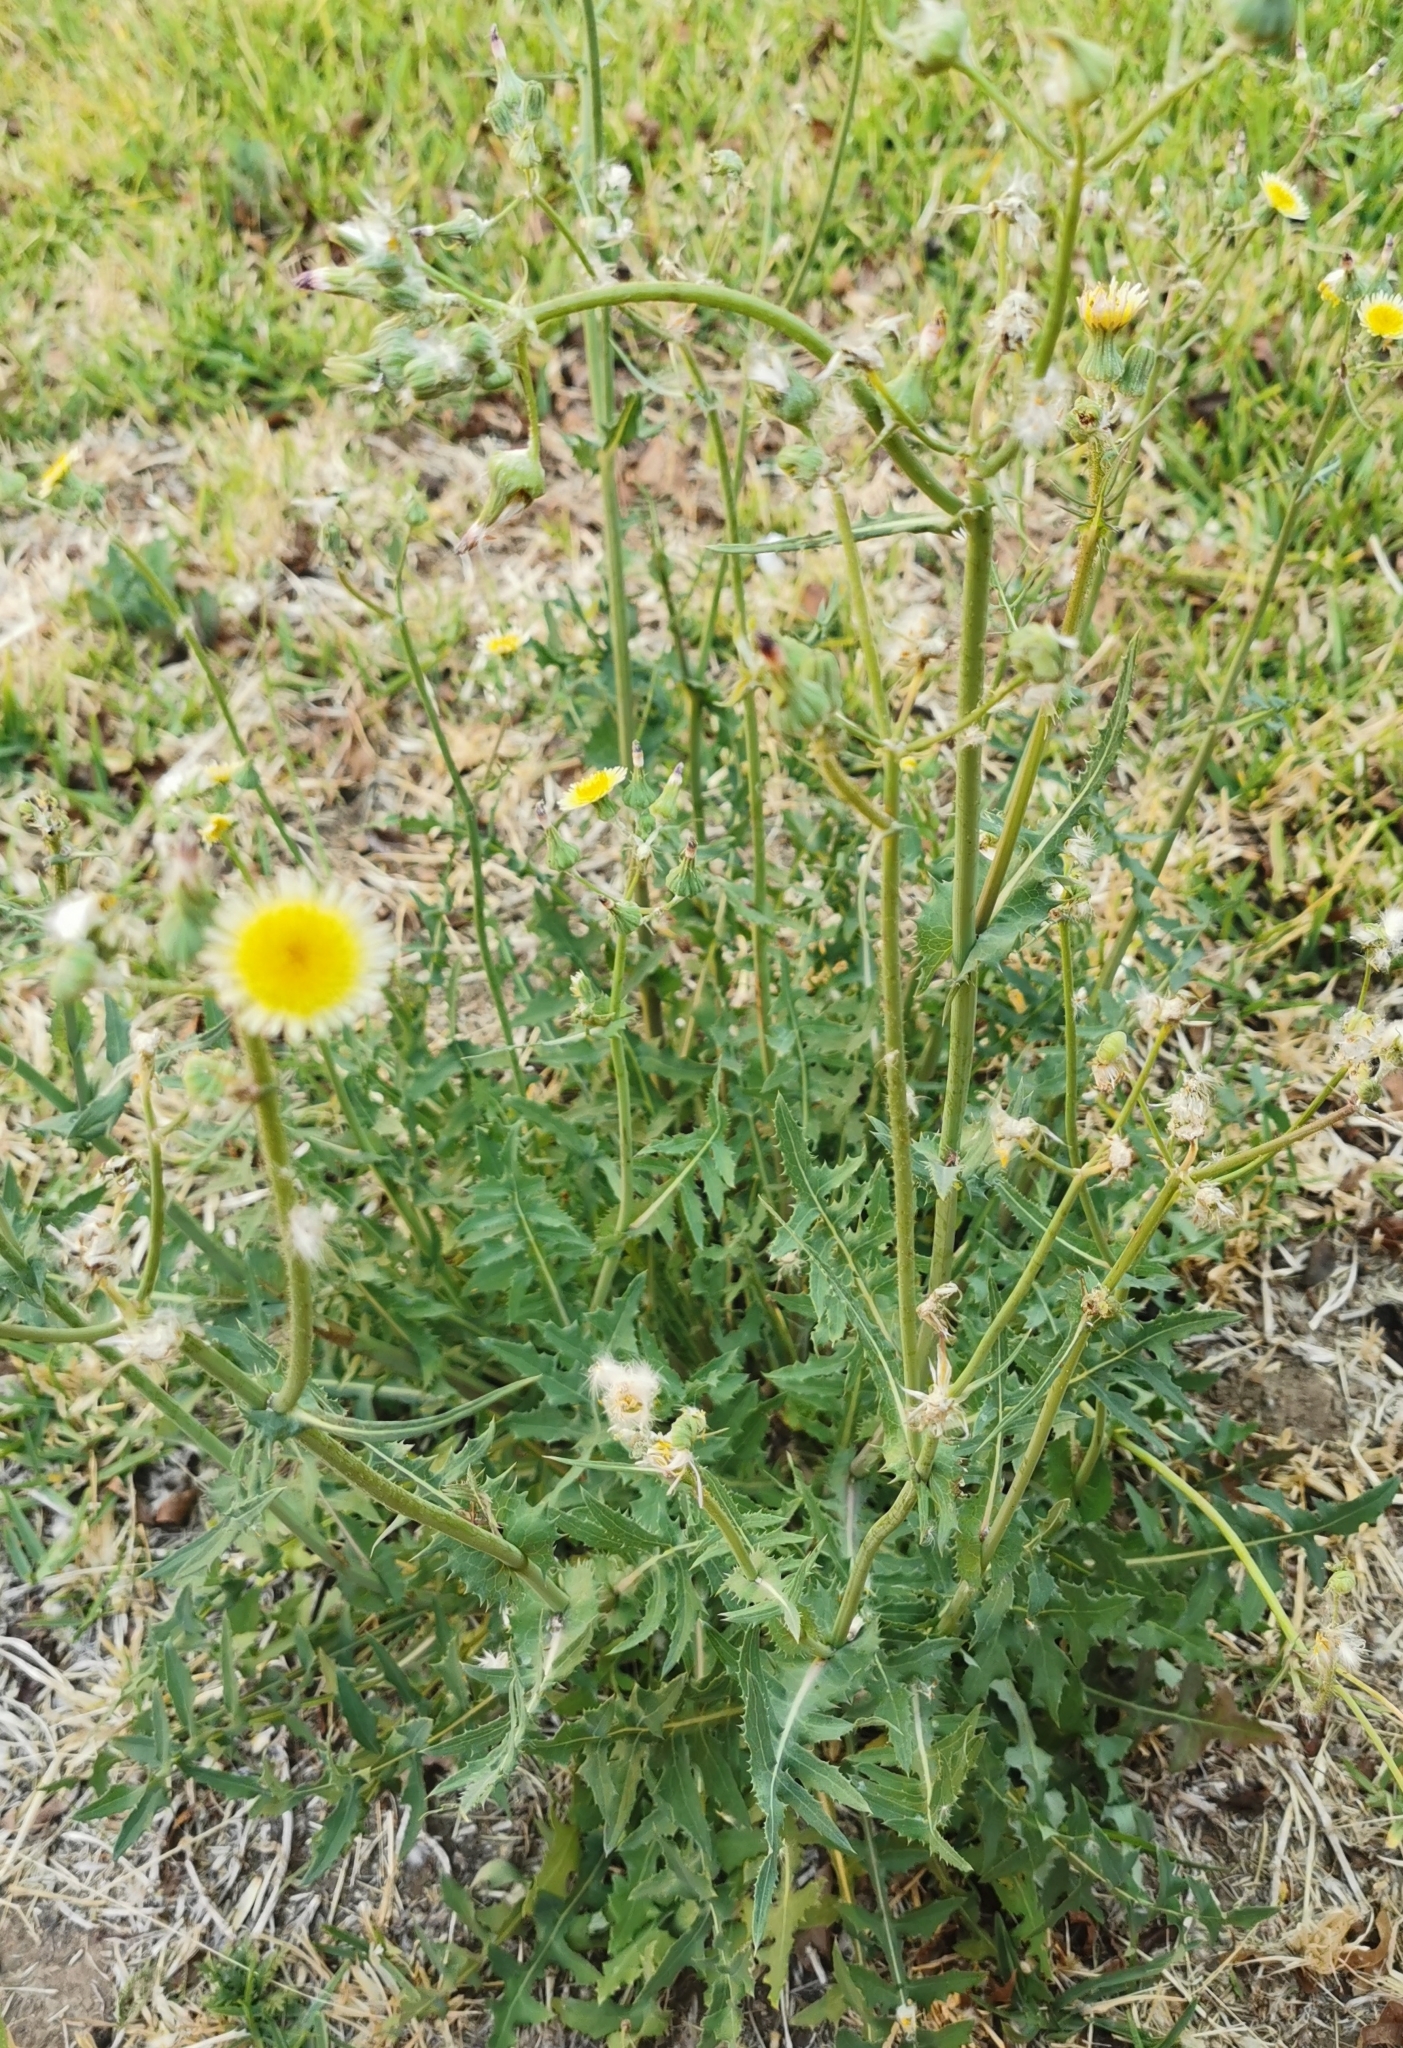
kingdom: Plantae
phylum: Tracheophyta
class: Magnoliopsida
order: Asterales
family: Asteraceae
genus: Sonchus
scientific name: Sonchus asper
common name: Prickly sow-thistle
